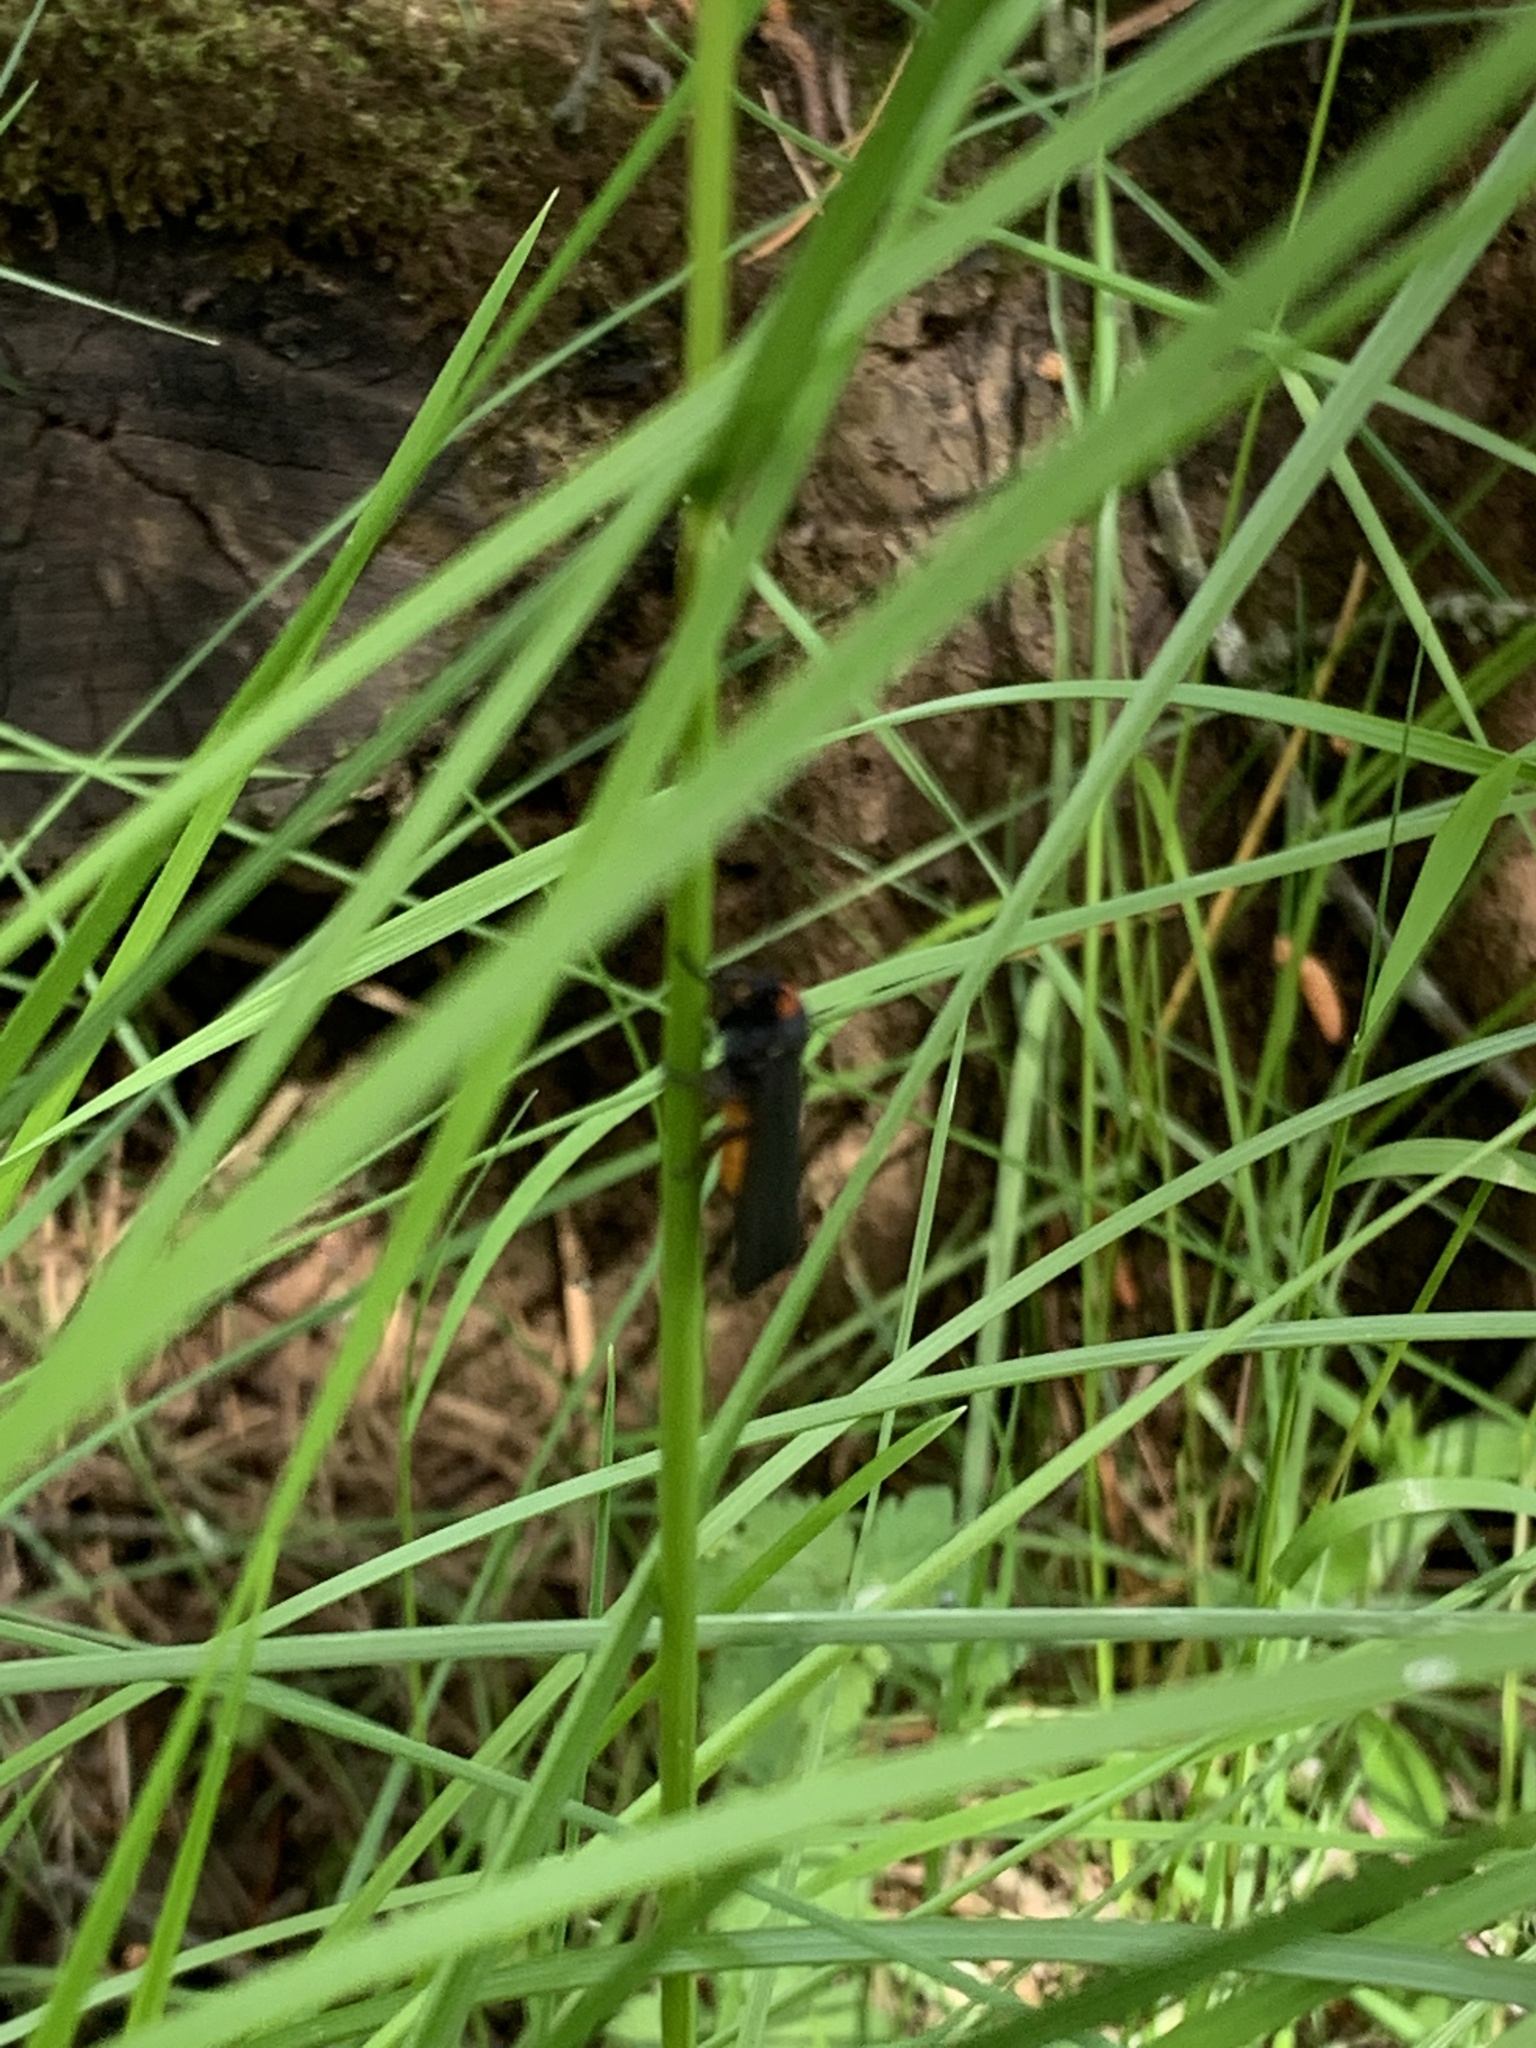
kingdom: Animalia
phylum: Arthropoda
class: Insecta
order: Lepidoptera
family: Erebidae
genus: Atolmis
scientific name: Atolmis rubricollis
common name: Red-necked footman
